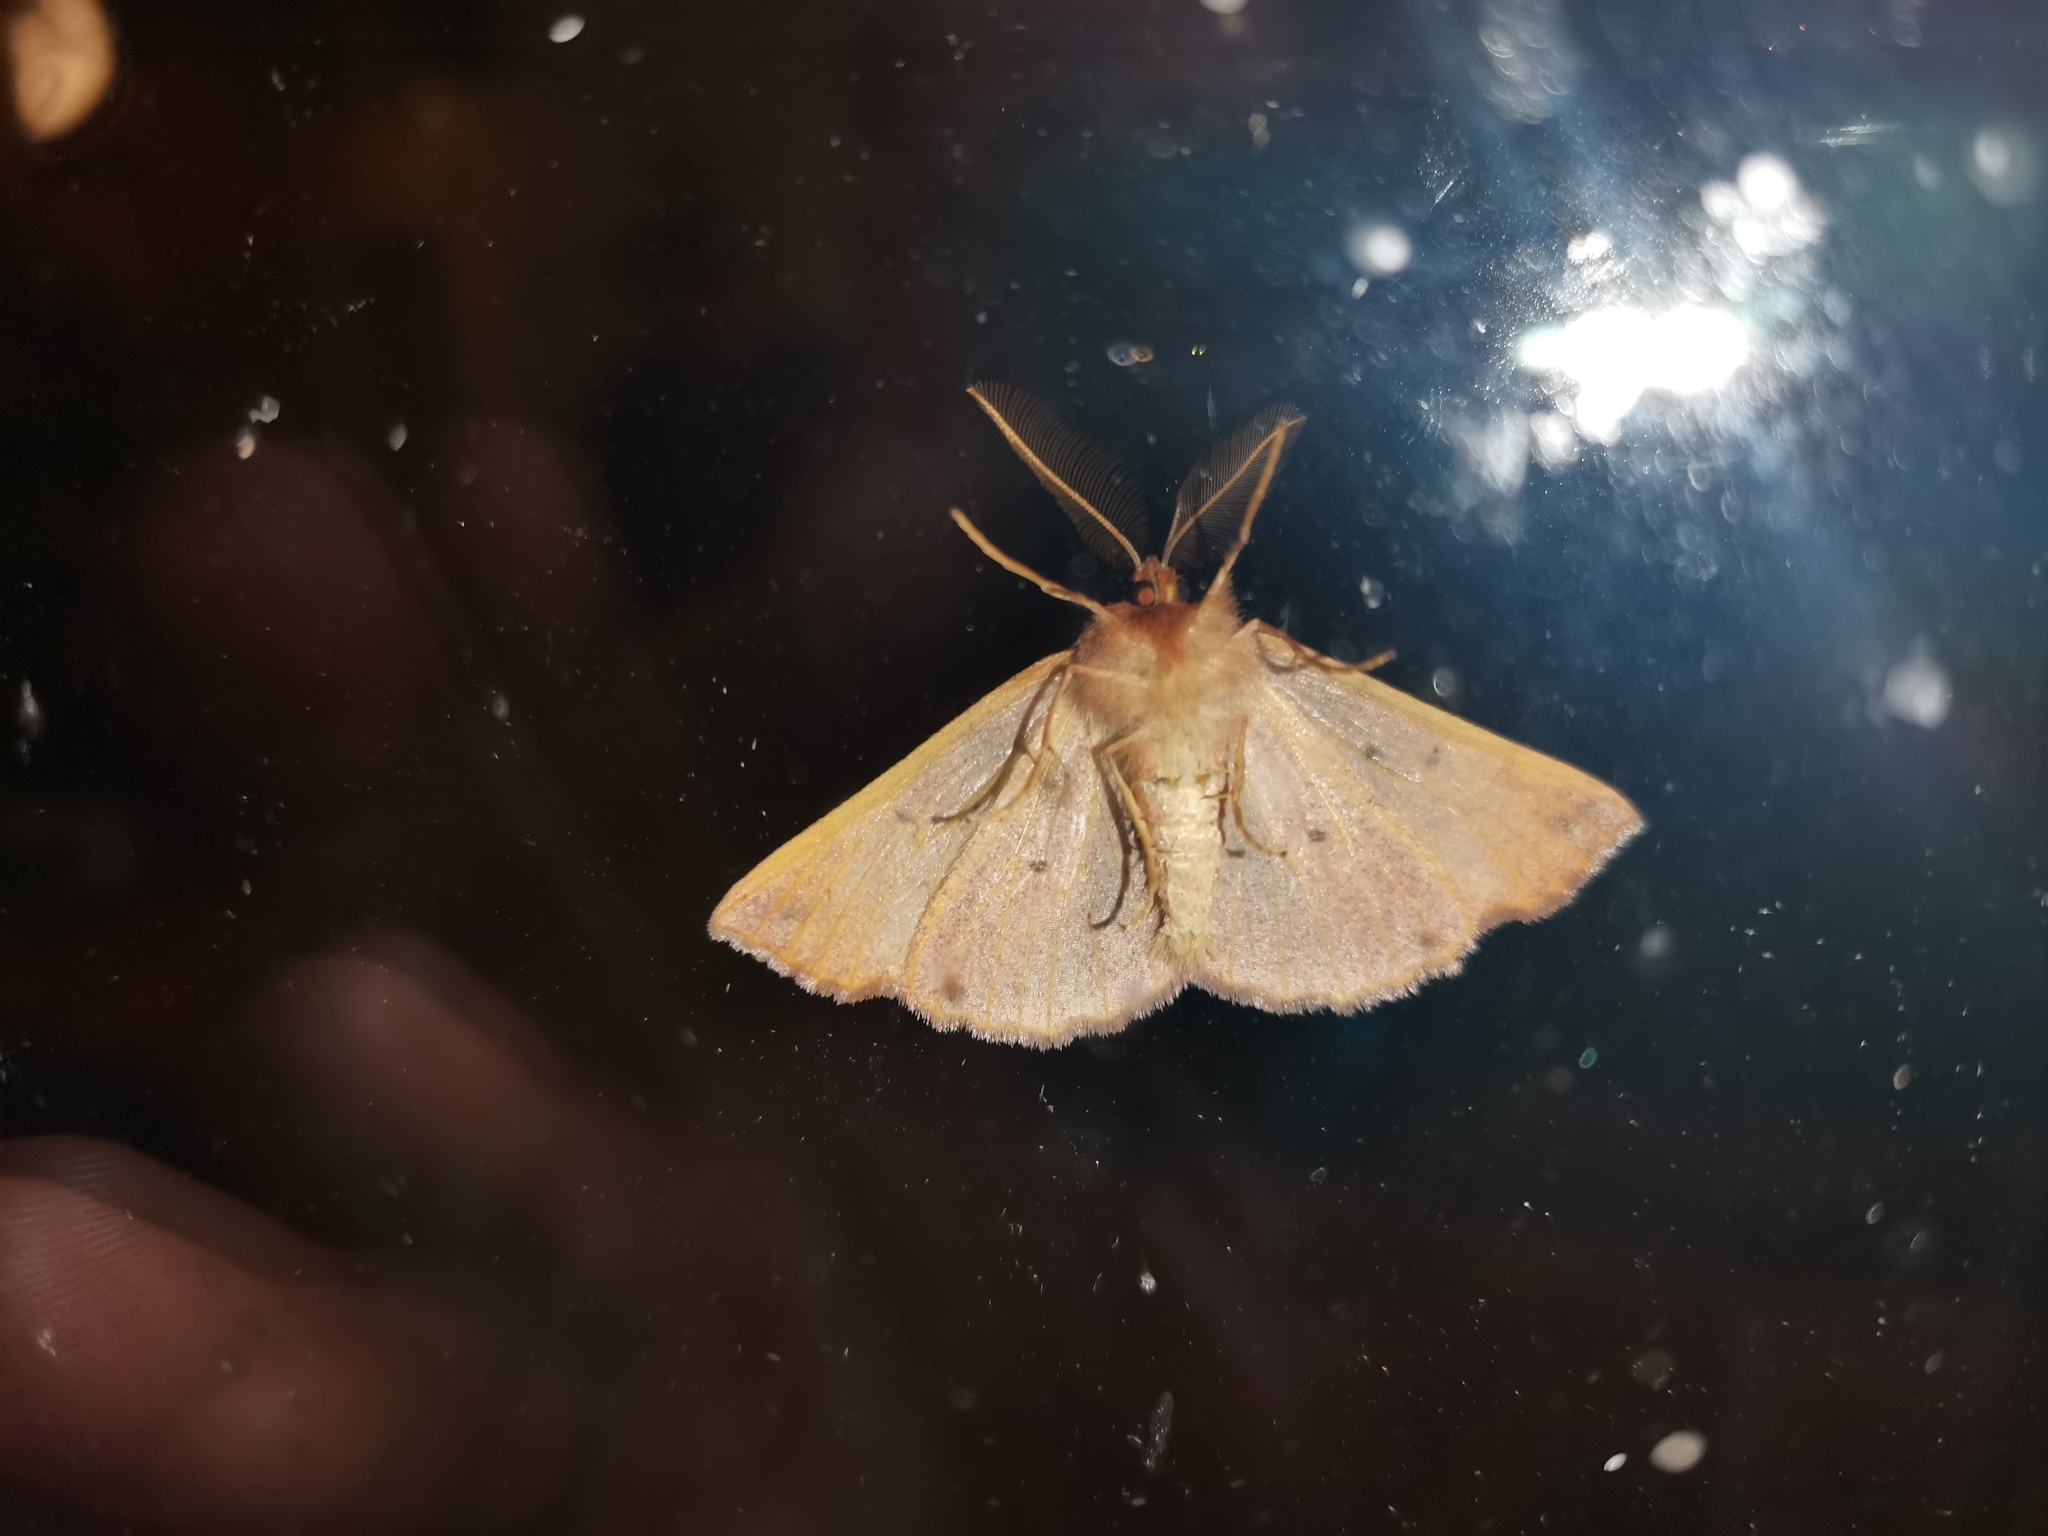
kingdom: Animalia
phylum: Arthropoda
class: Insecta
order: Lepidoptera
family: Geometridae
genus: Colotois
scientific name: Colotois pennaria
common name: Feathered thorn
